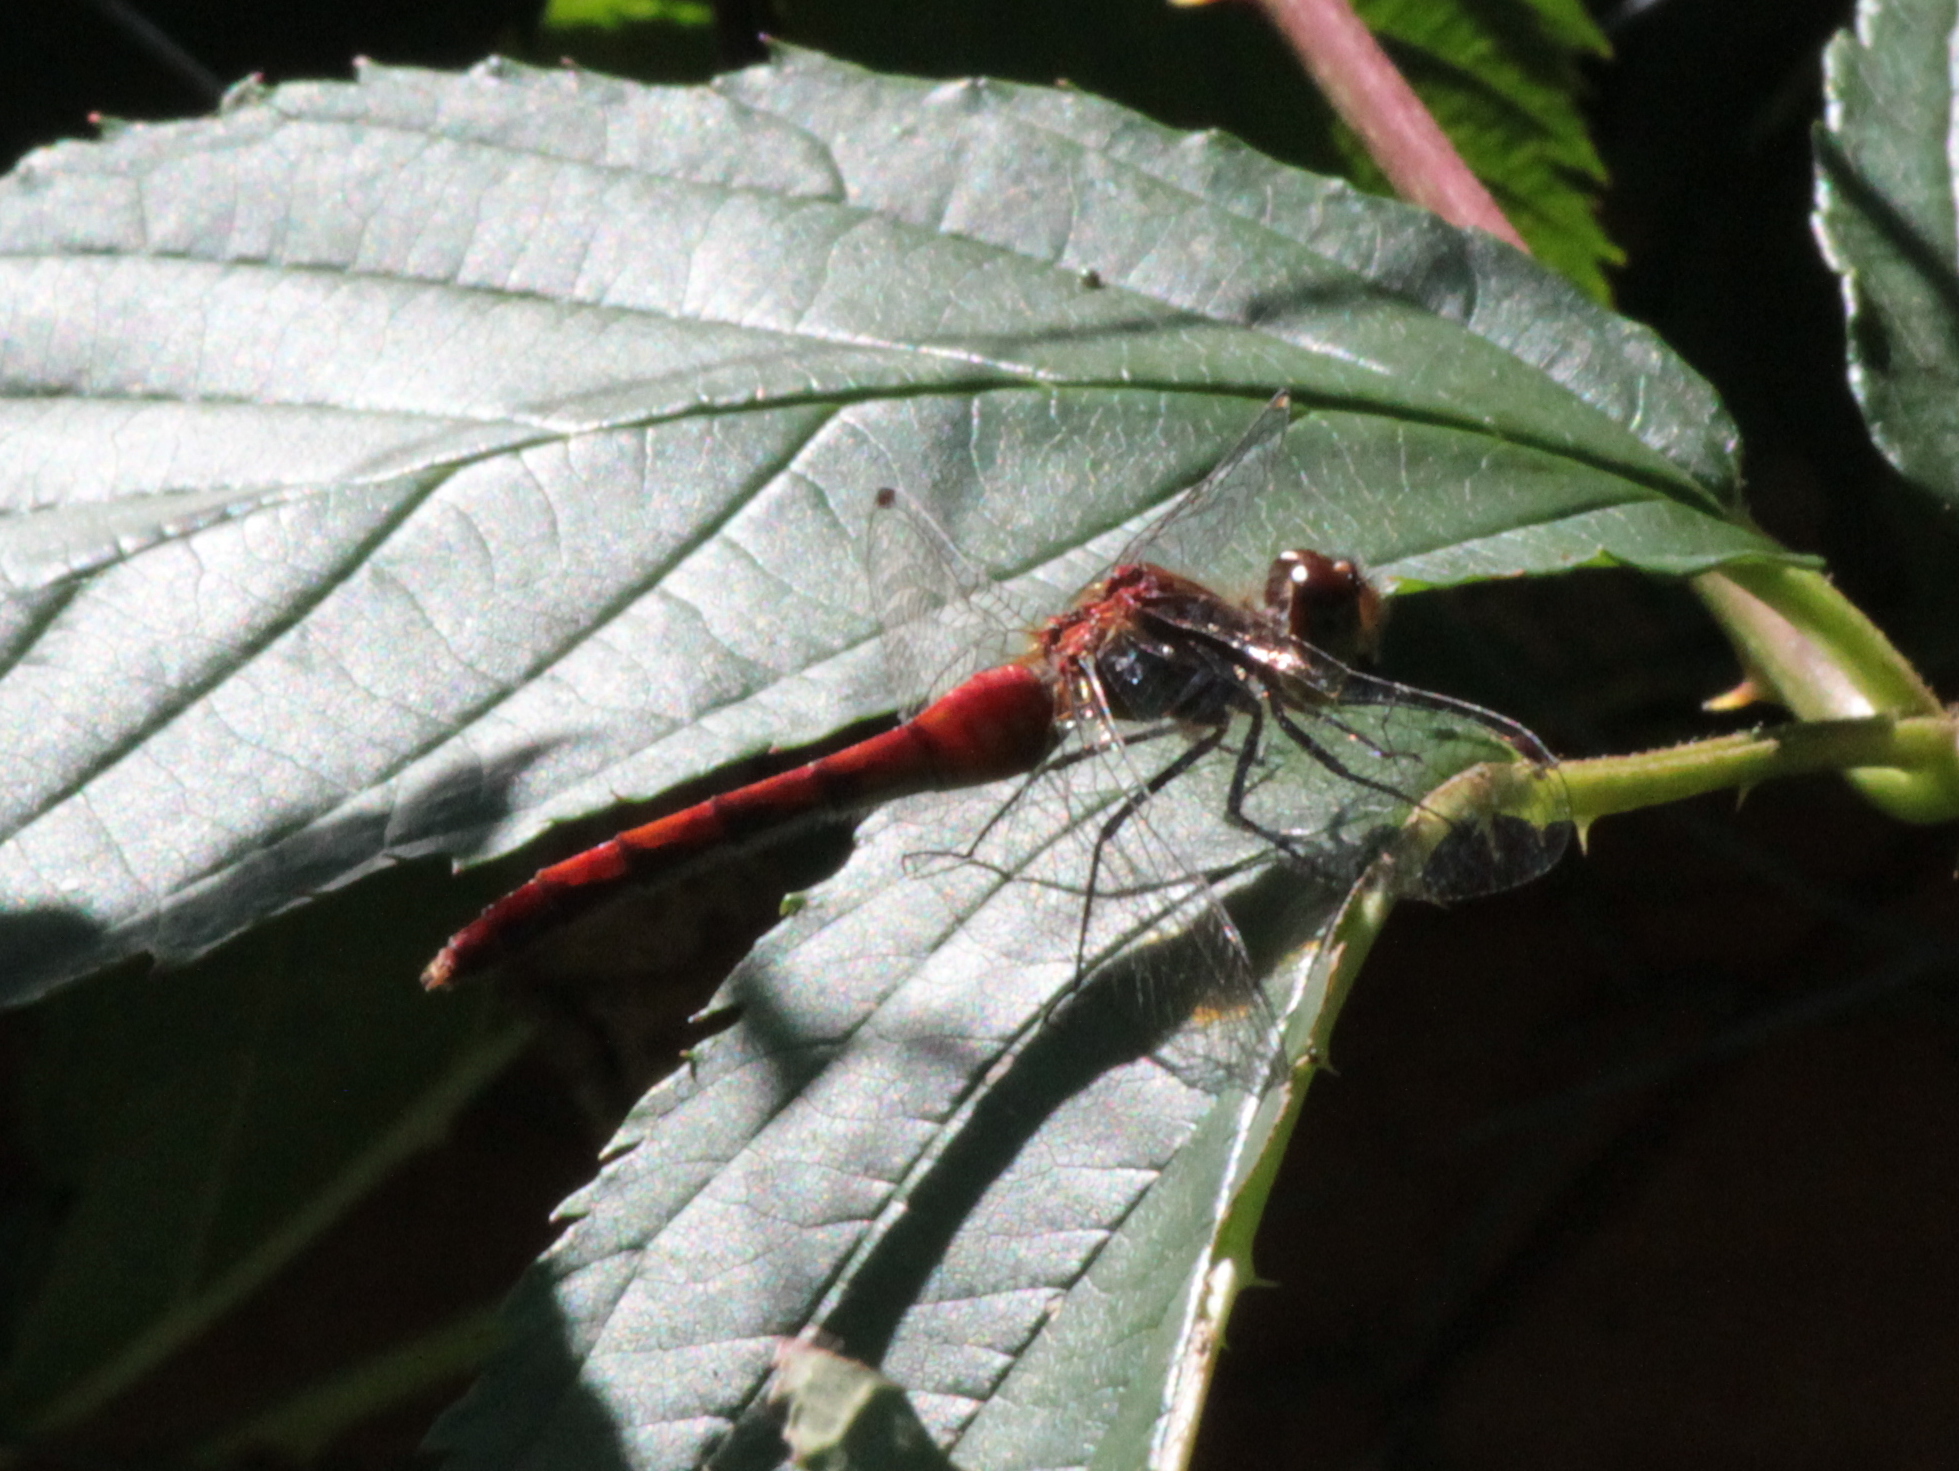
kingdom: Animalia
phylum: Arthropoda
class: Insecta
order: Odonata
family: Libellulidae
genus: Sympetrum
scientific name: Sympetrum internum
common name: Cherry-faced meadowhawk
